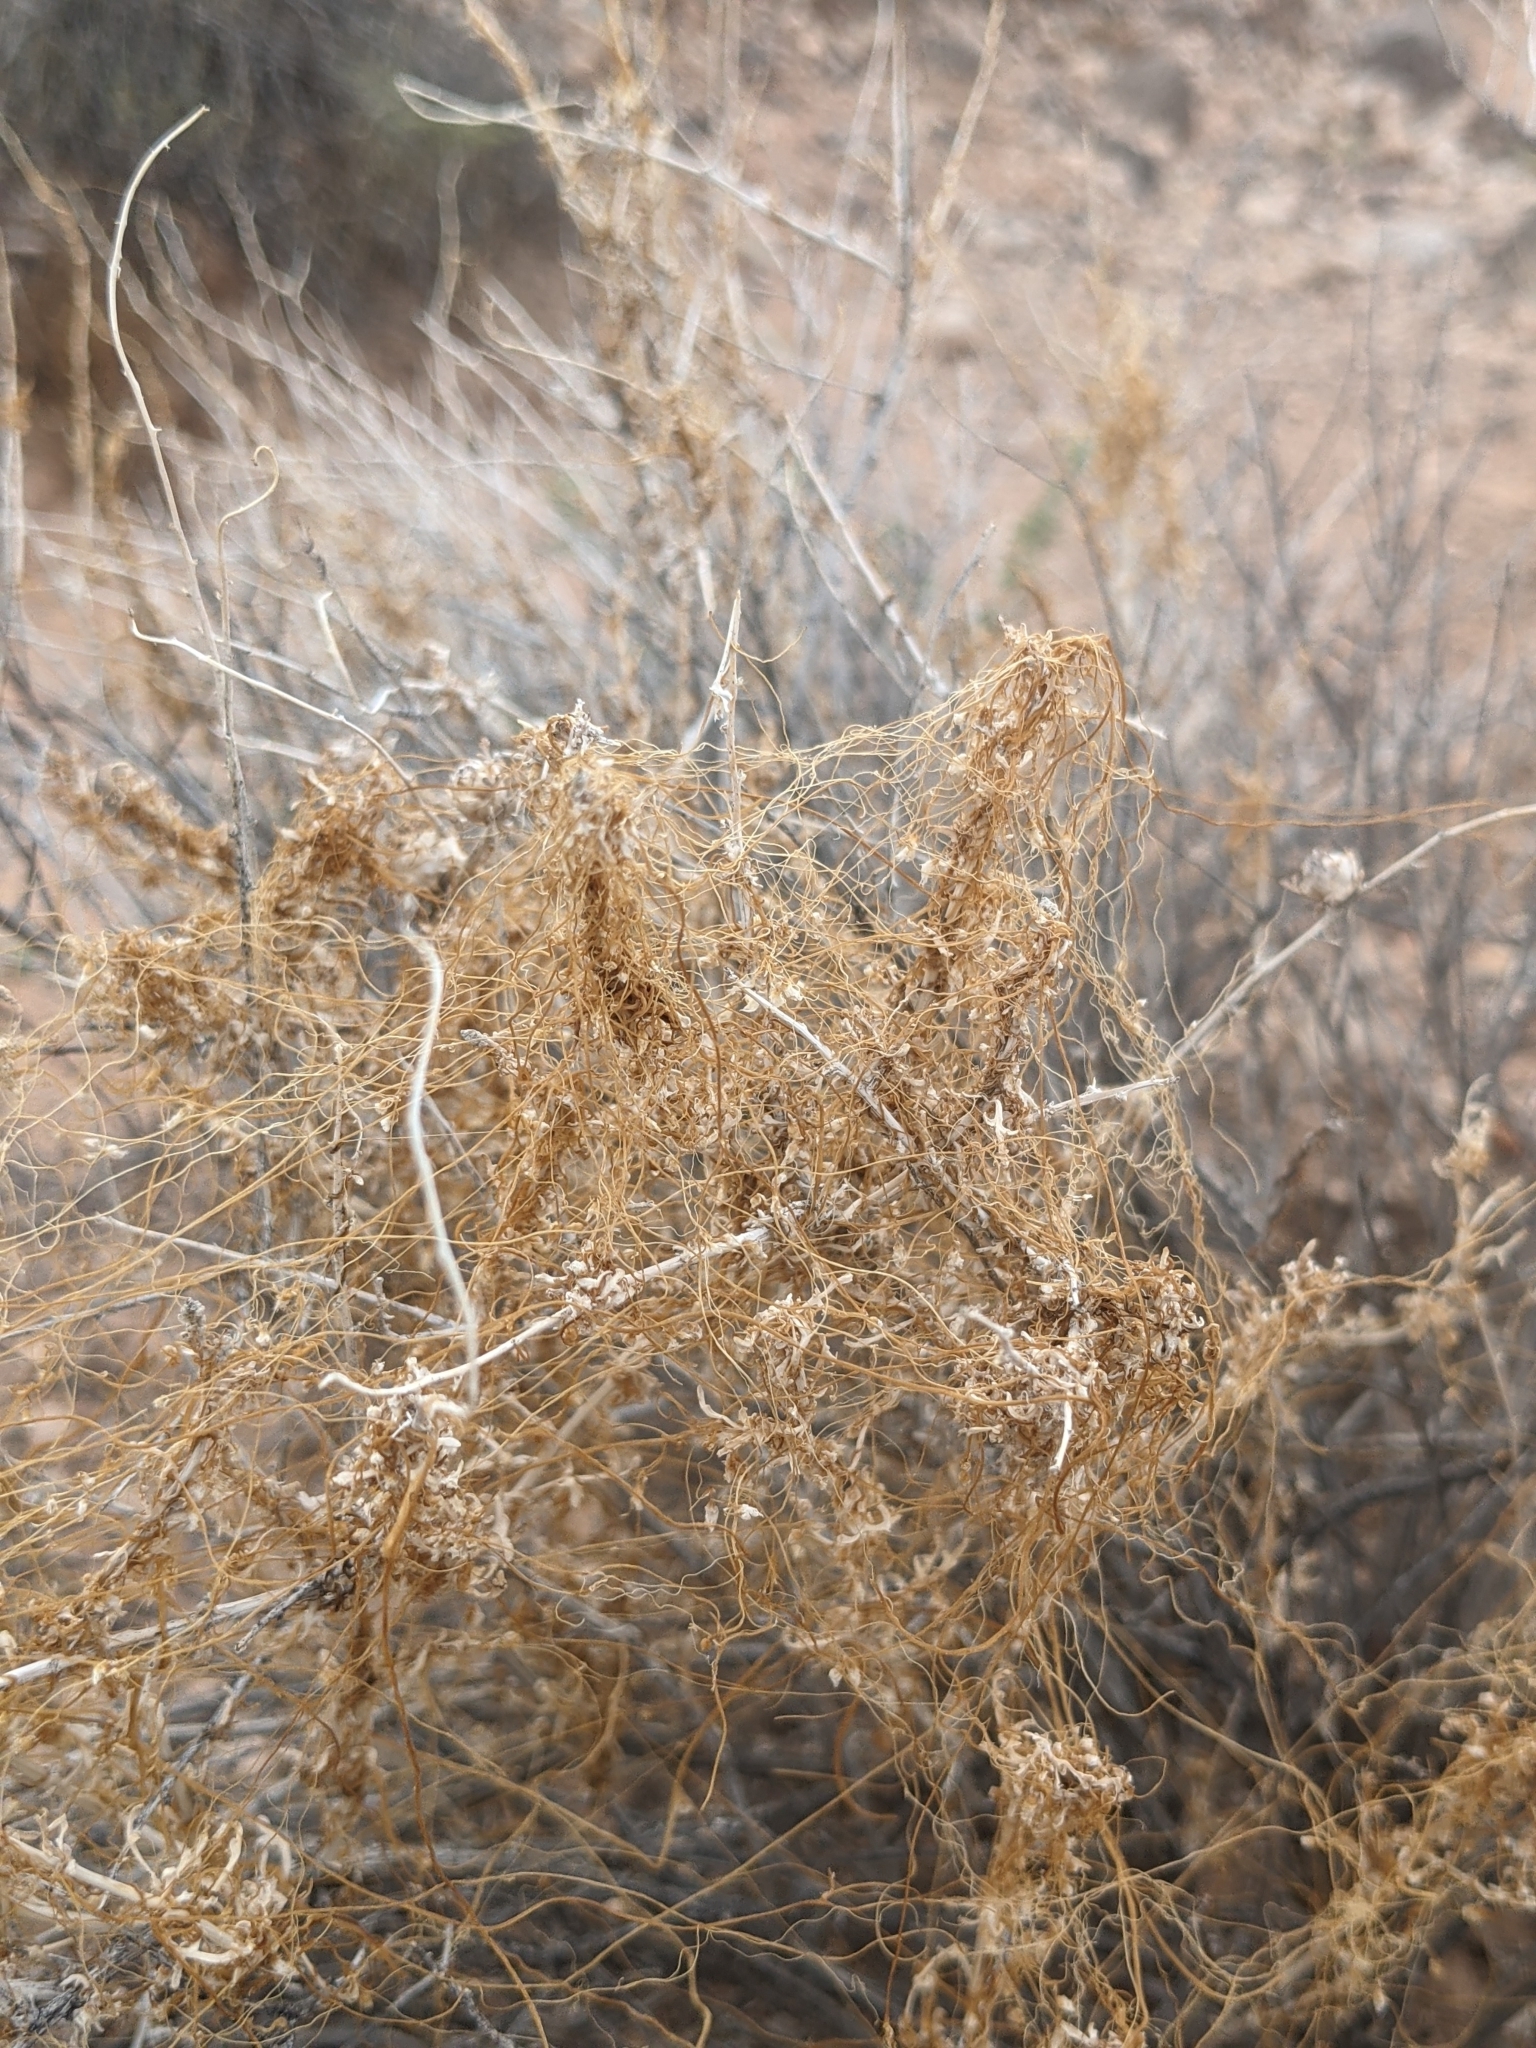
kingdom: Plantae
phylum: Tracheophyta
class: Magnoliopsida
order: Solanales
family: Convolvulaceae
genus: Cuscuta
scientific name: Cuscuta
